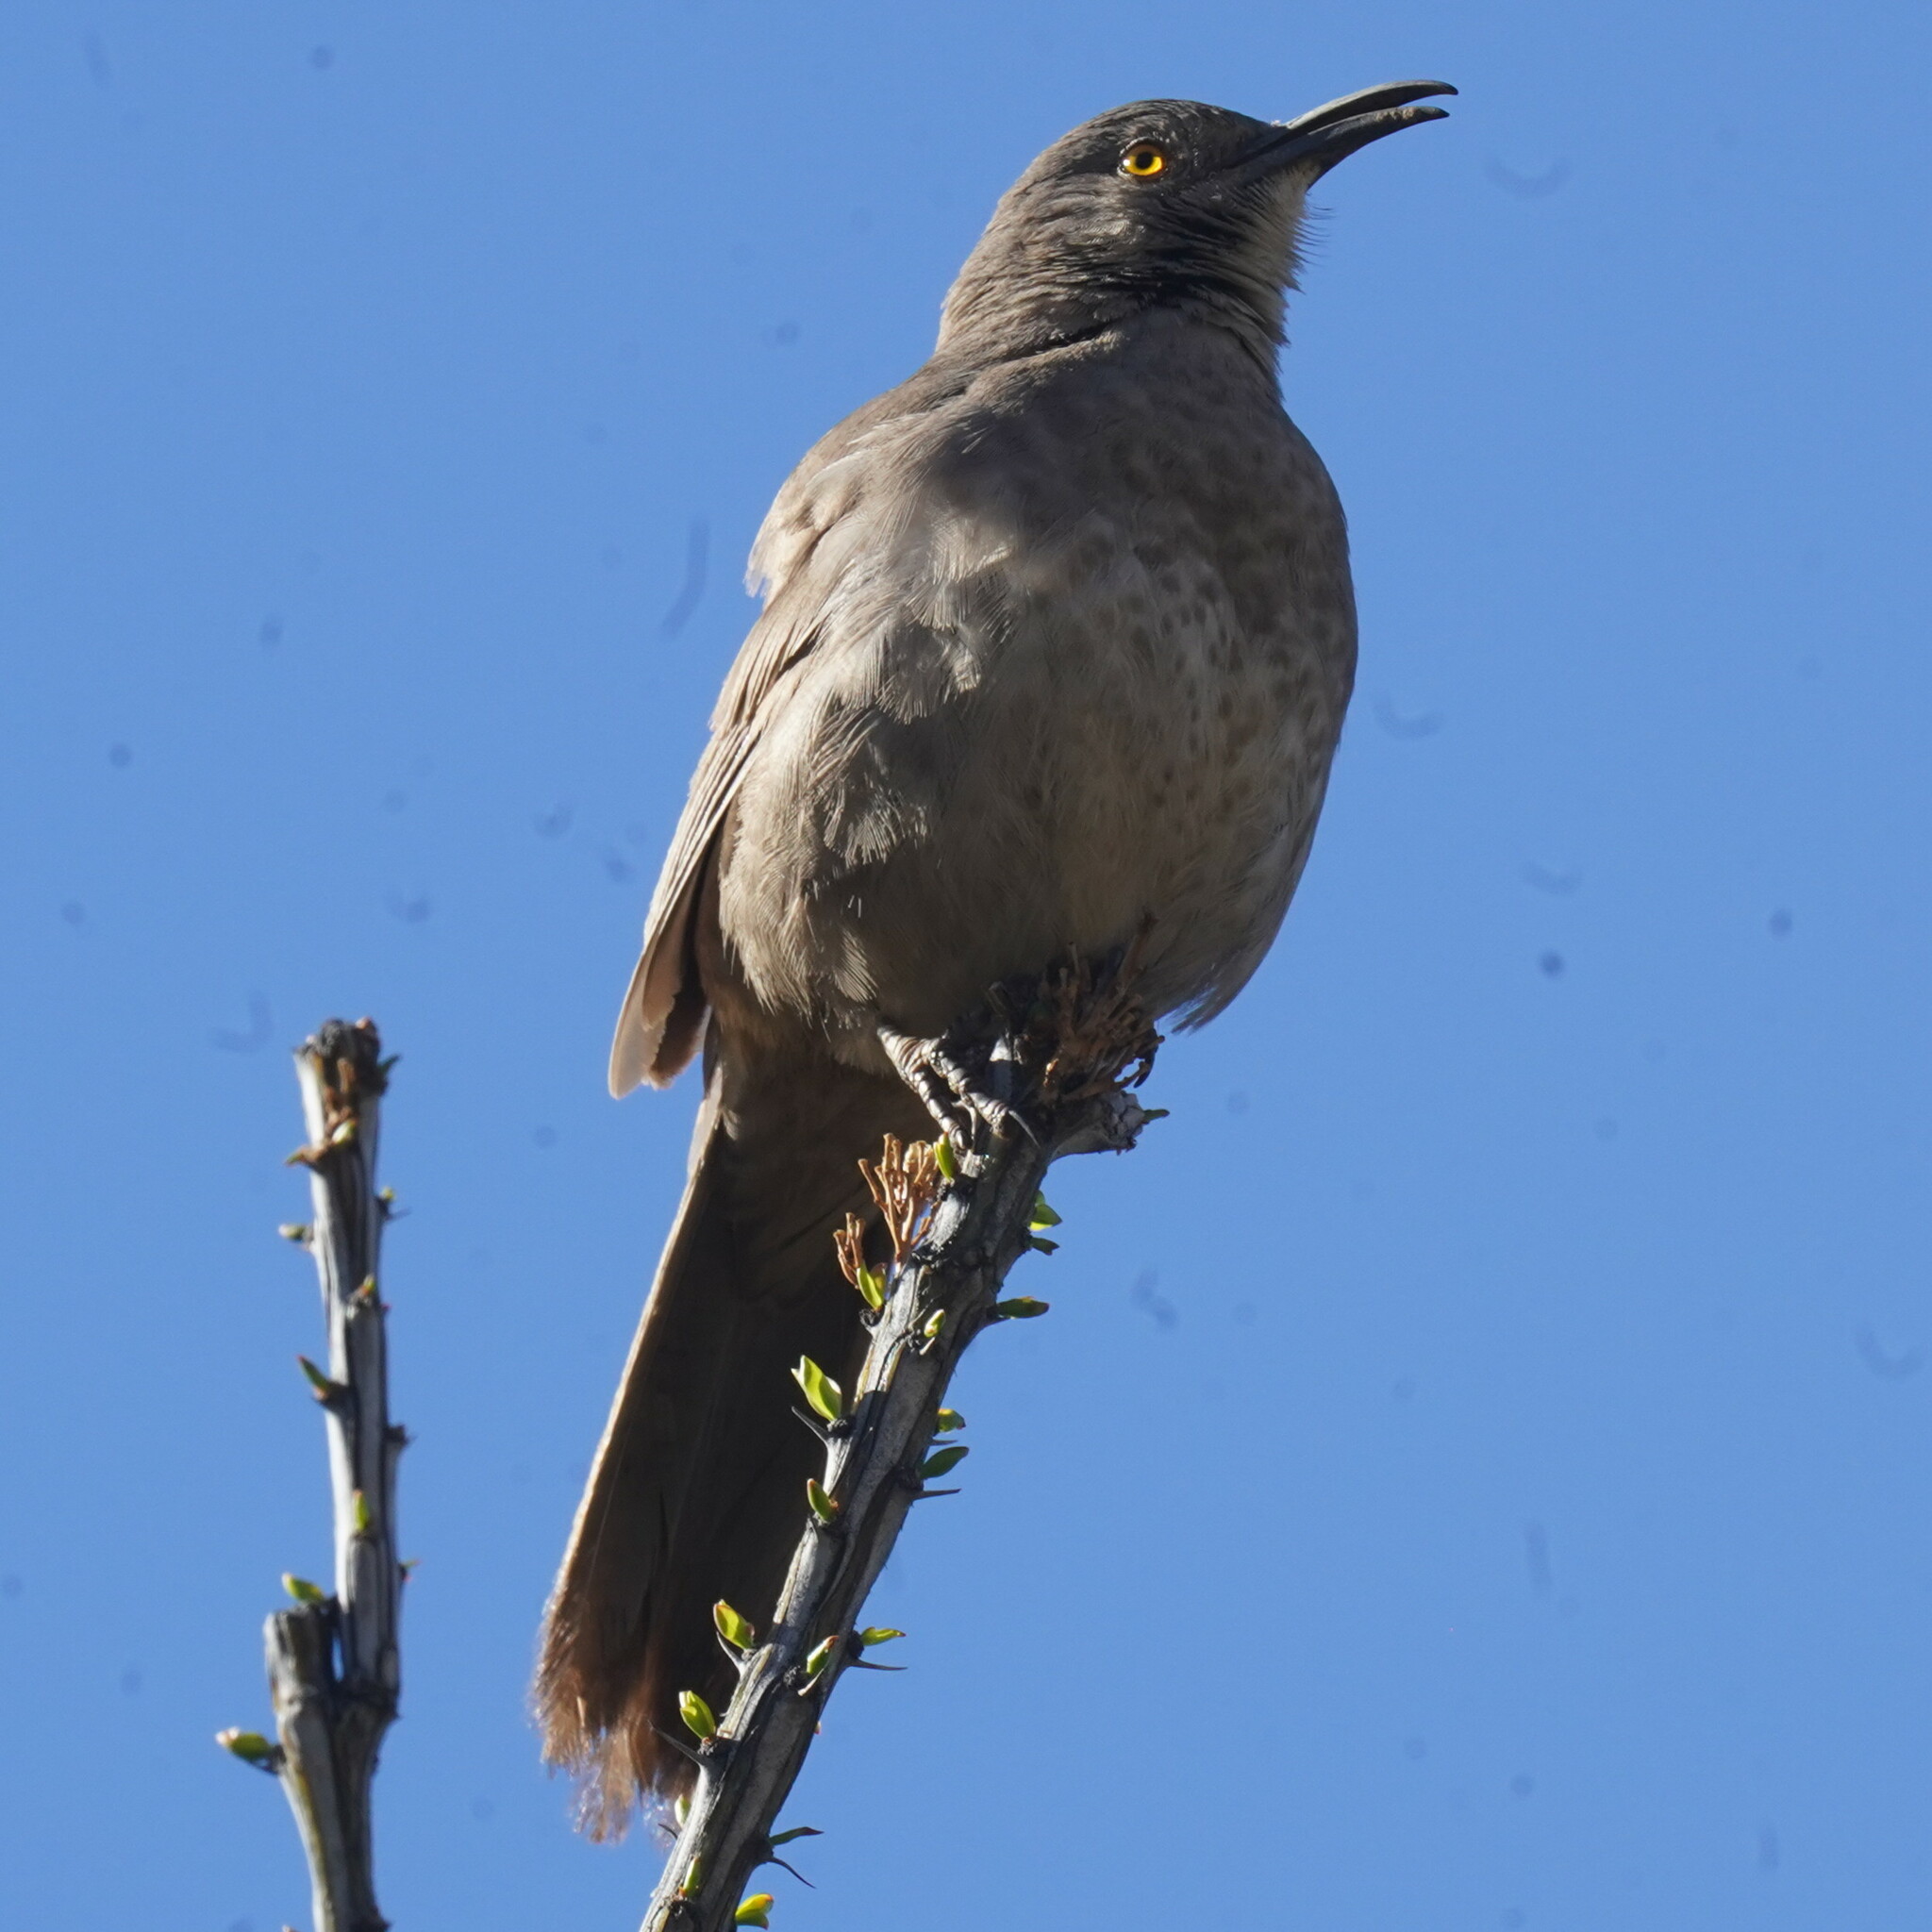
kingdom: Animalia
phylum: Chordata
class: Aves
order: Passeriformes
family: Mimidae
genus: Toxostoma
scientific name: Toxostoma curvirostre
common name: Curve-billed thrasher
